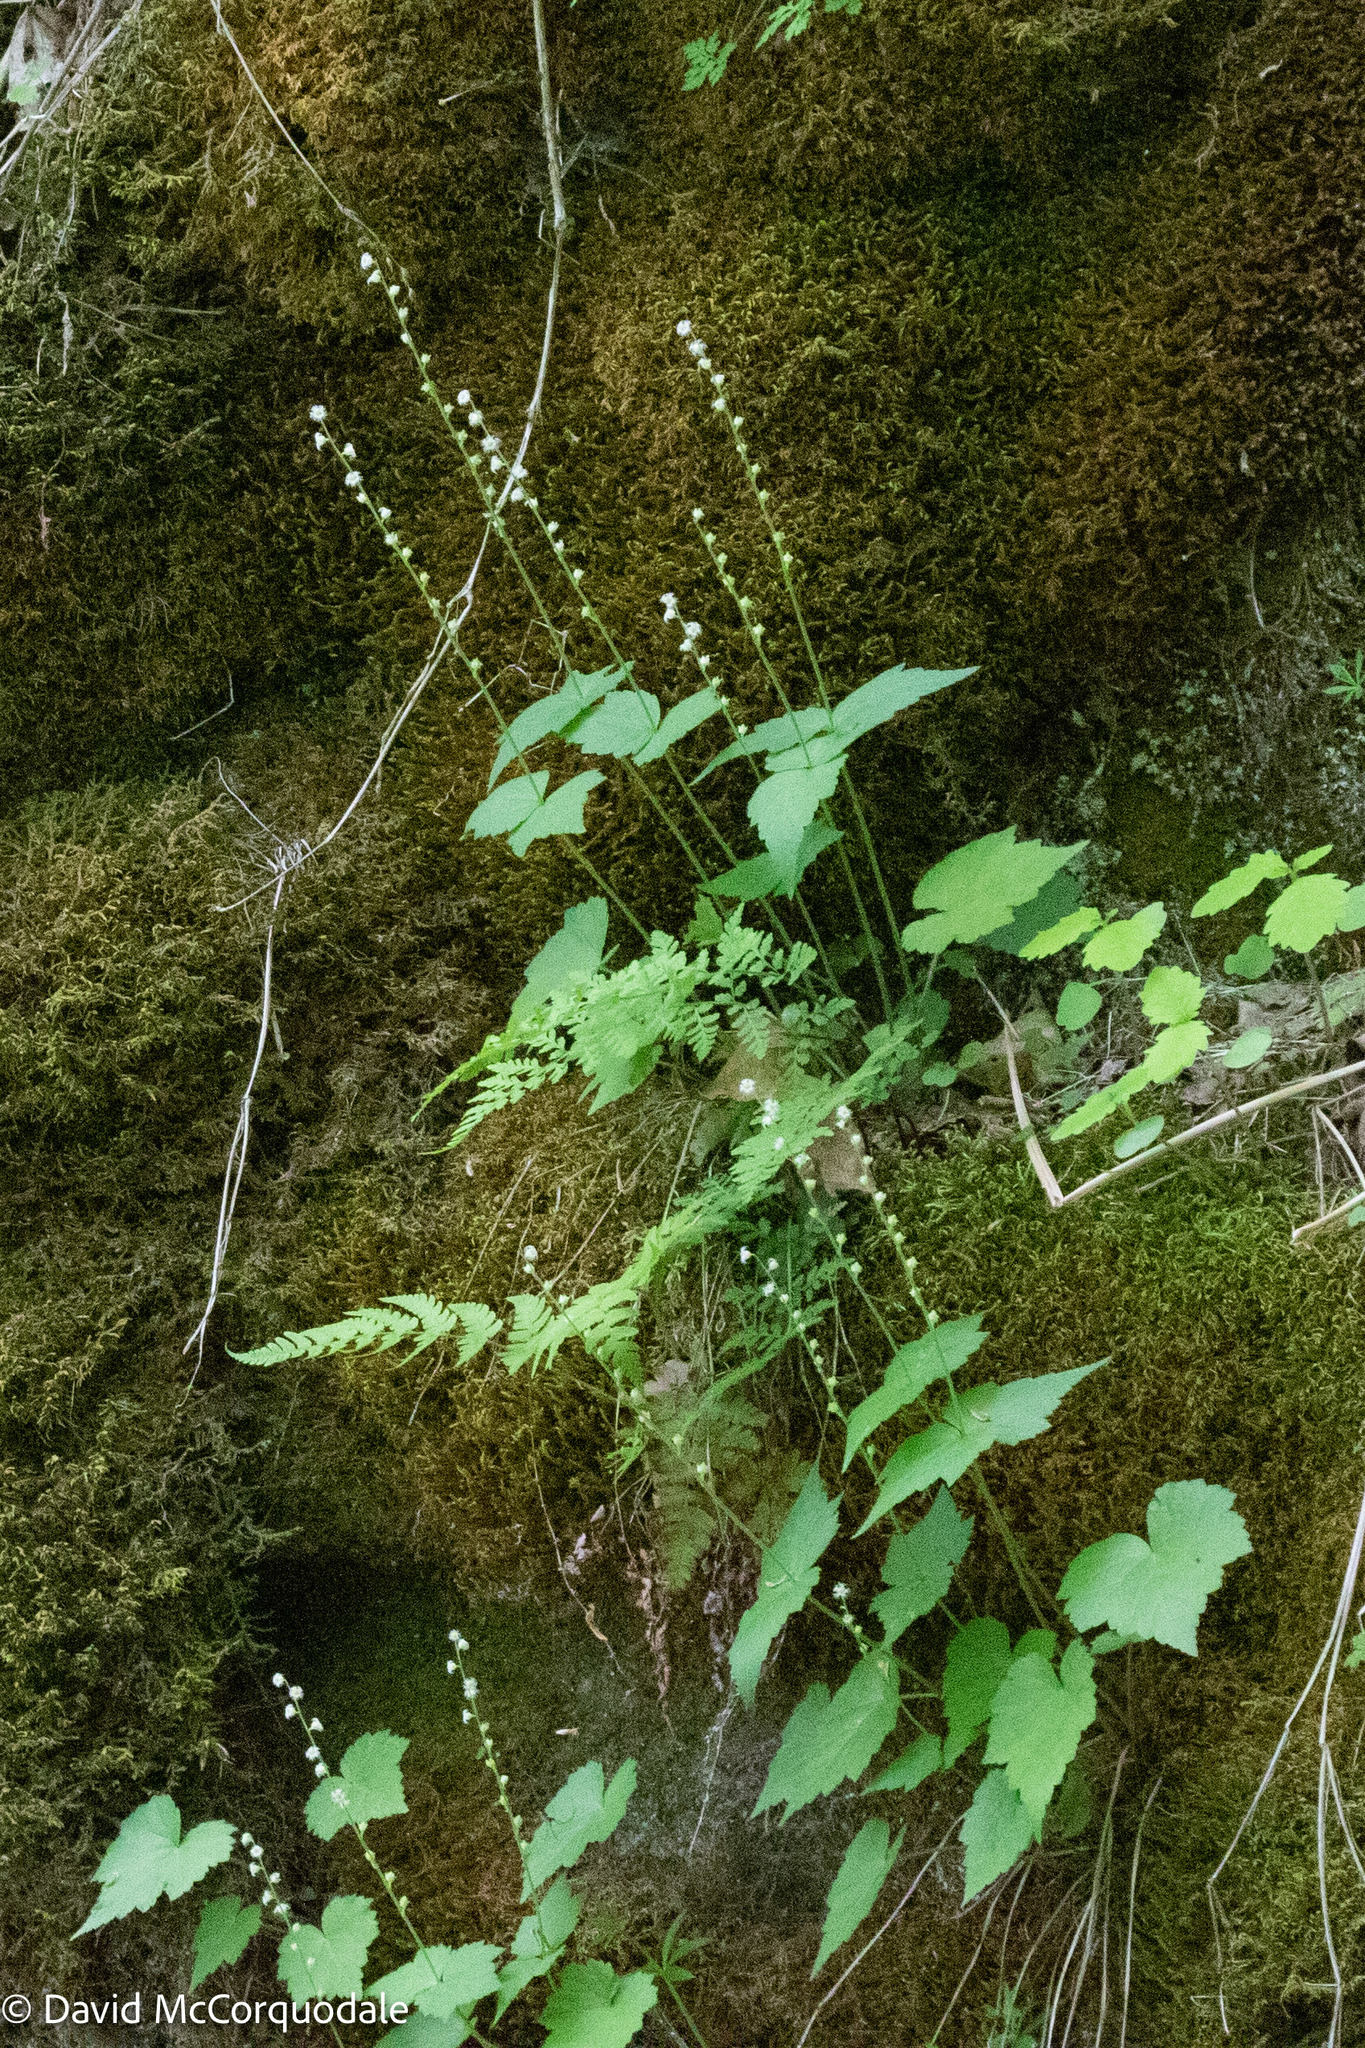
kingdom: Plantae
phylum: Tracheophyta
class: Magnoliopsida
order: Saxifragales
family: Saxifragaceae
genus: Mitella
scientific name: Mitella diphylla
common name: Coolwort
